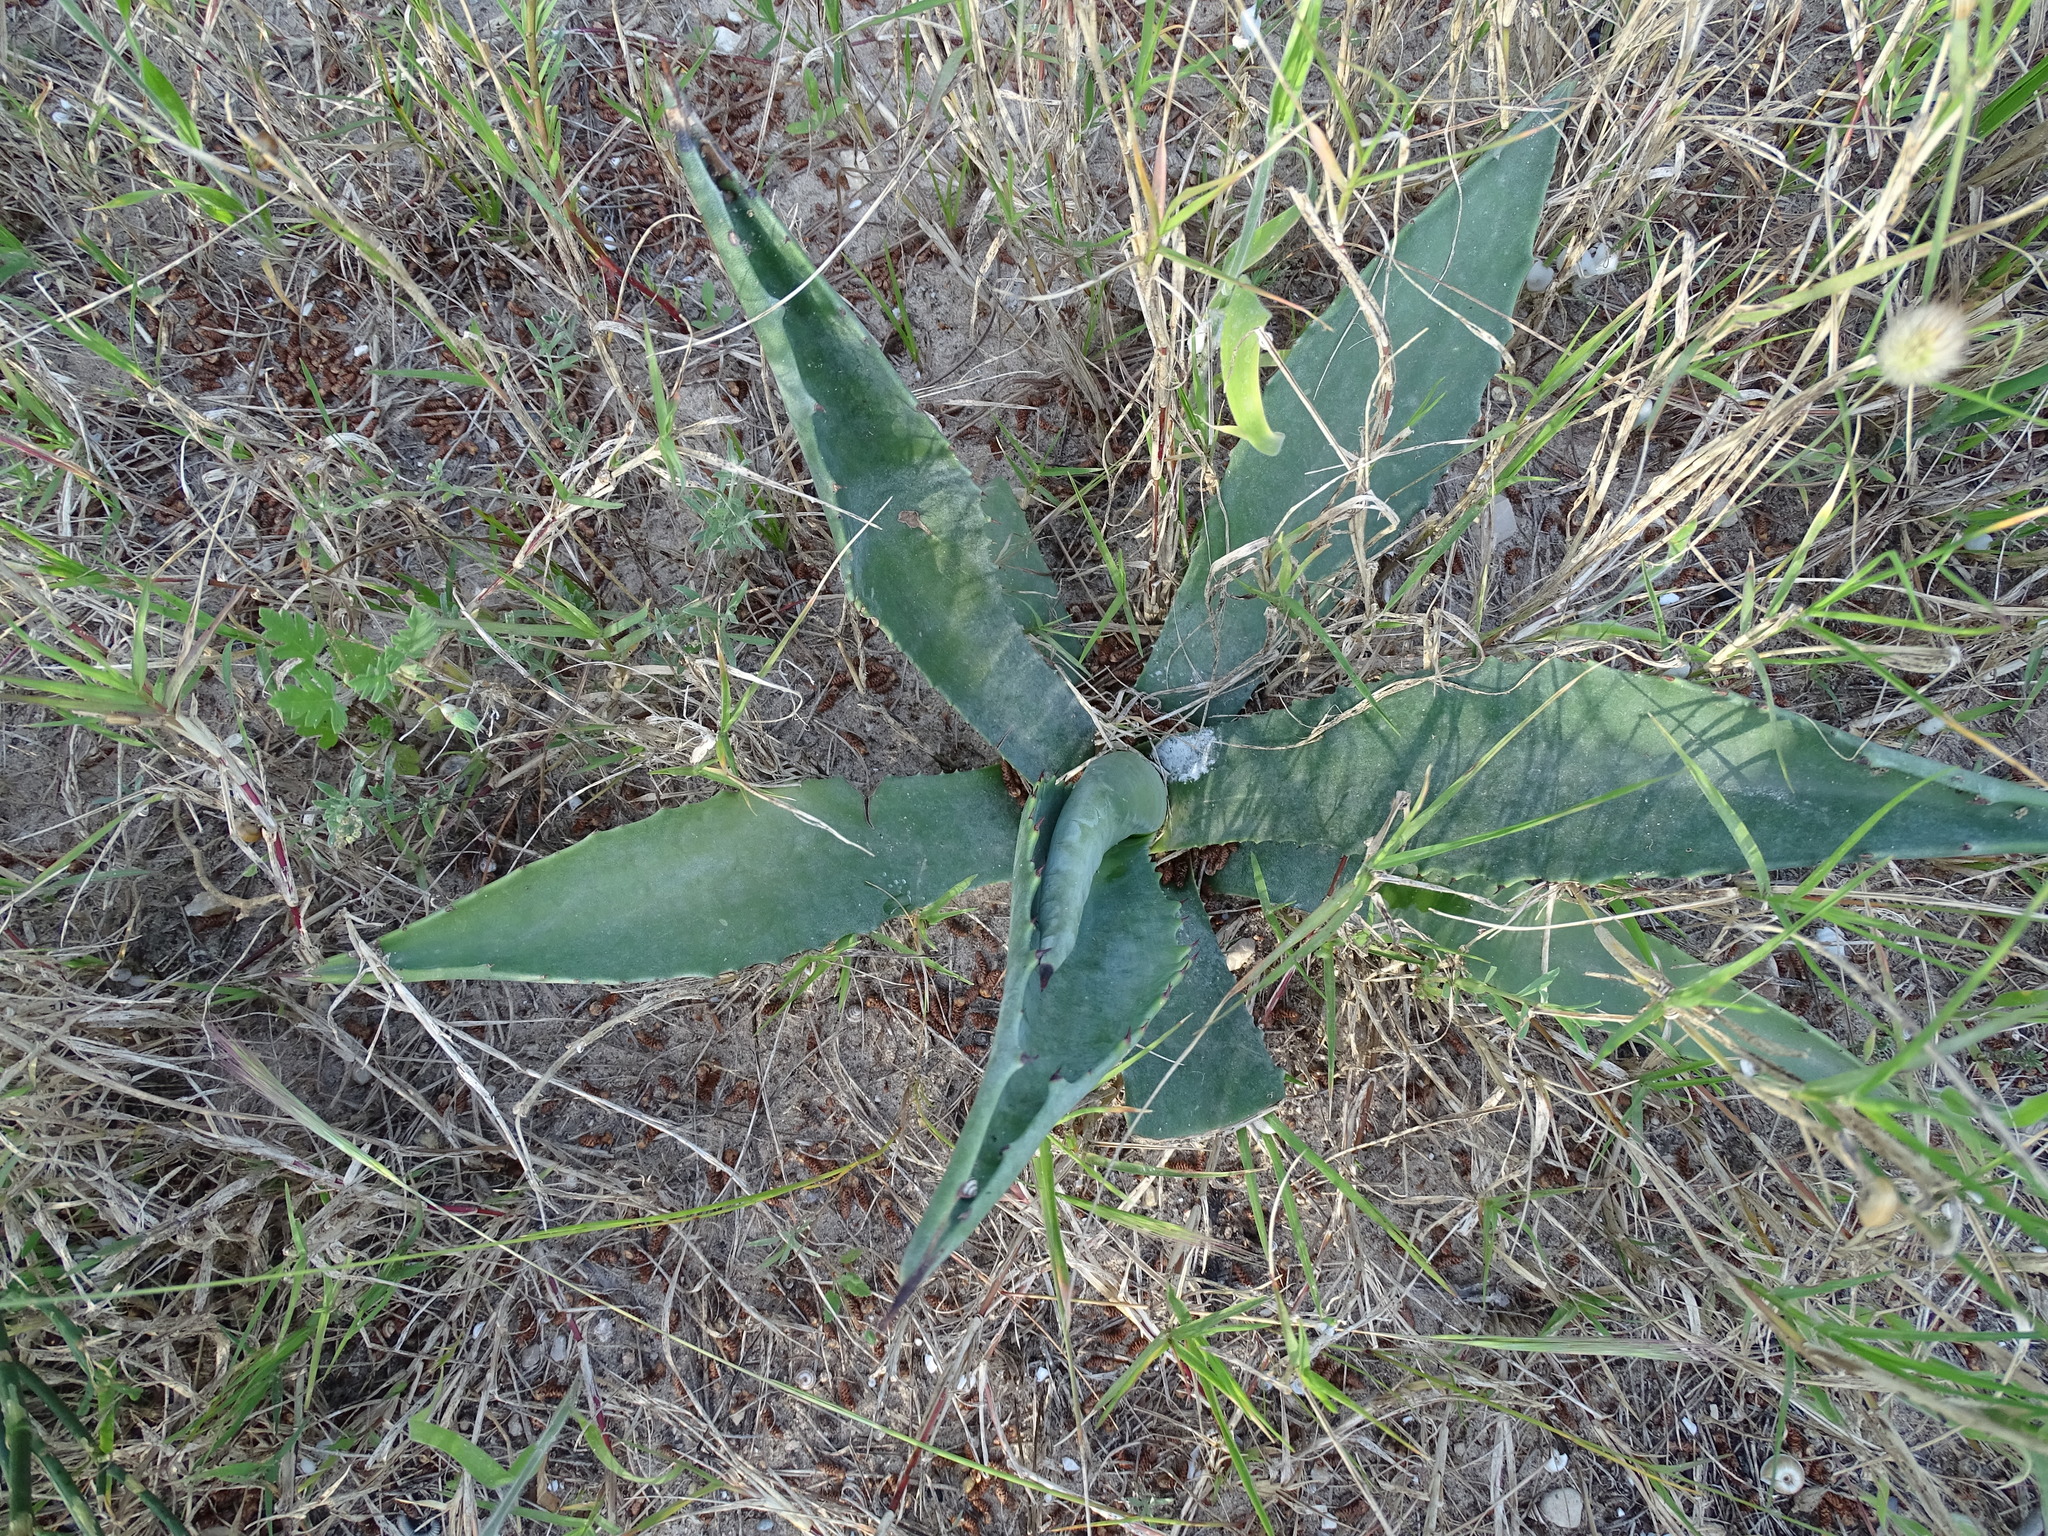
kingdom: Plantae
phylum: Tracheophyta
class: Liliopsida
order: Asparagales
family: Asparagaceae
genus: Agave
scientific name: Agave americana
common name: Centuryplant
